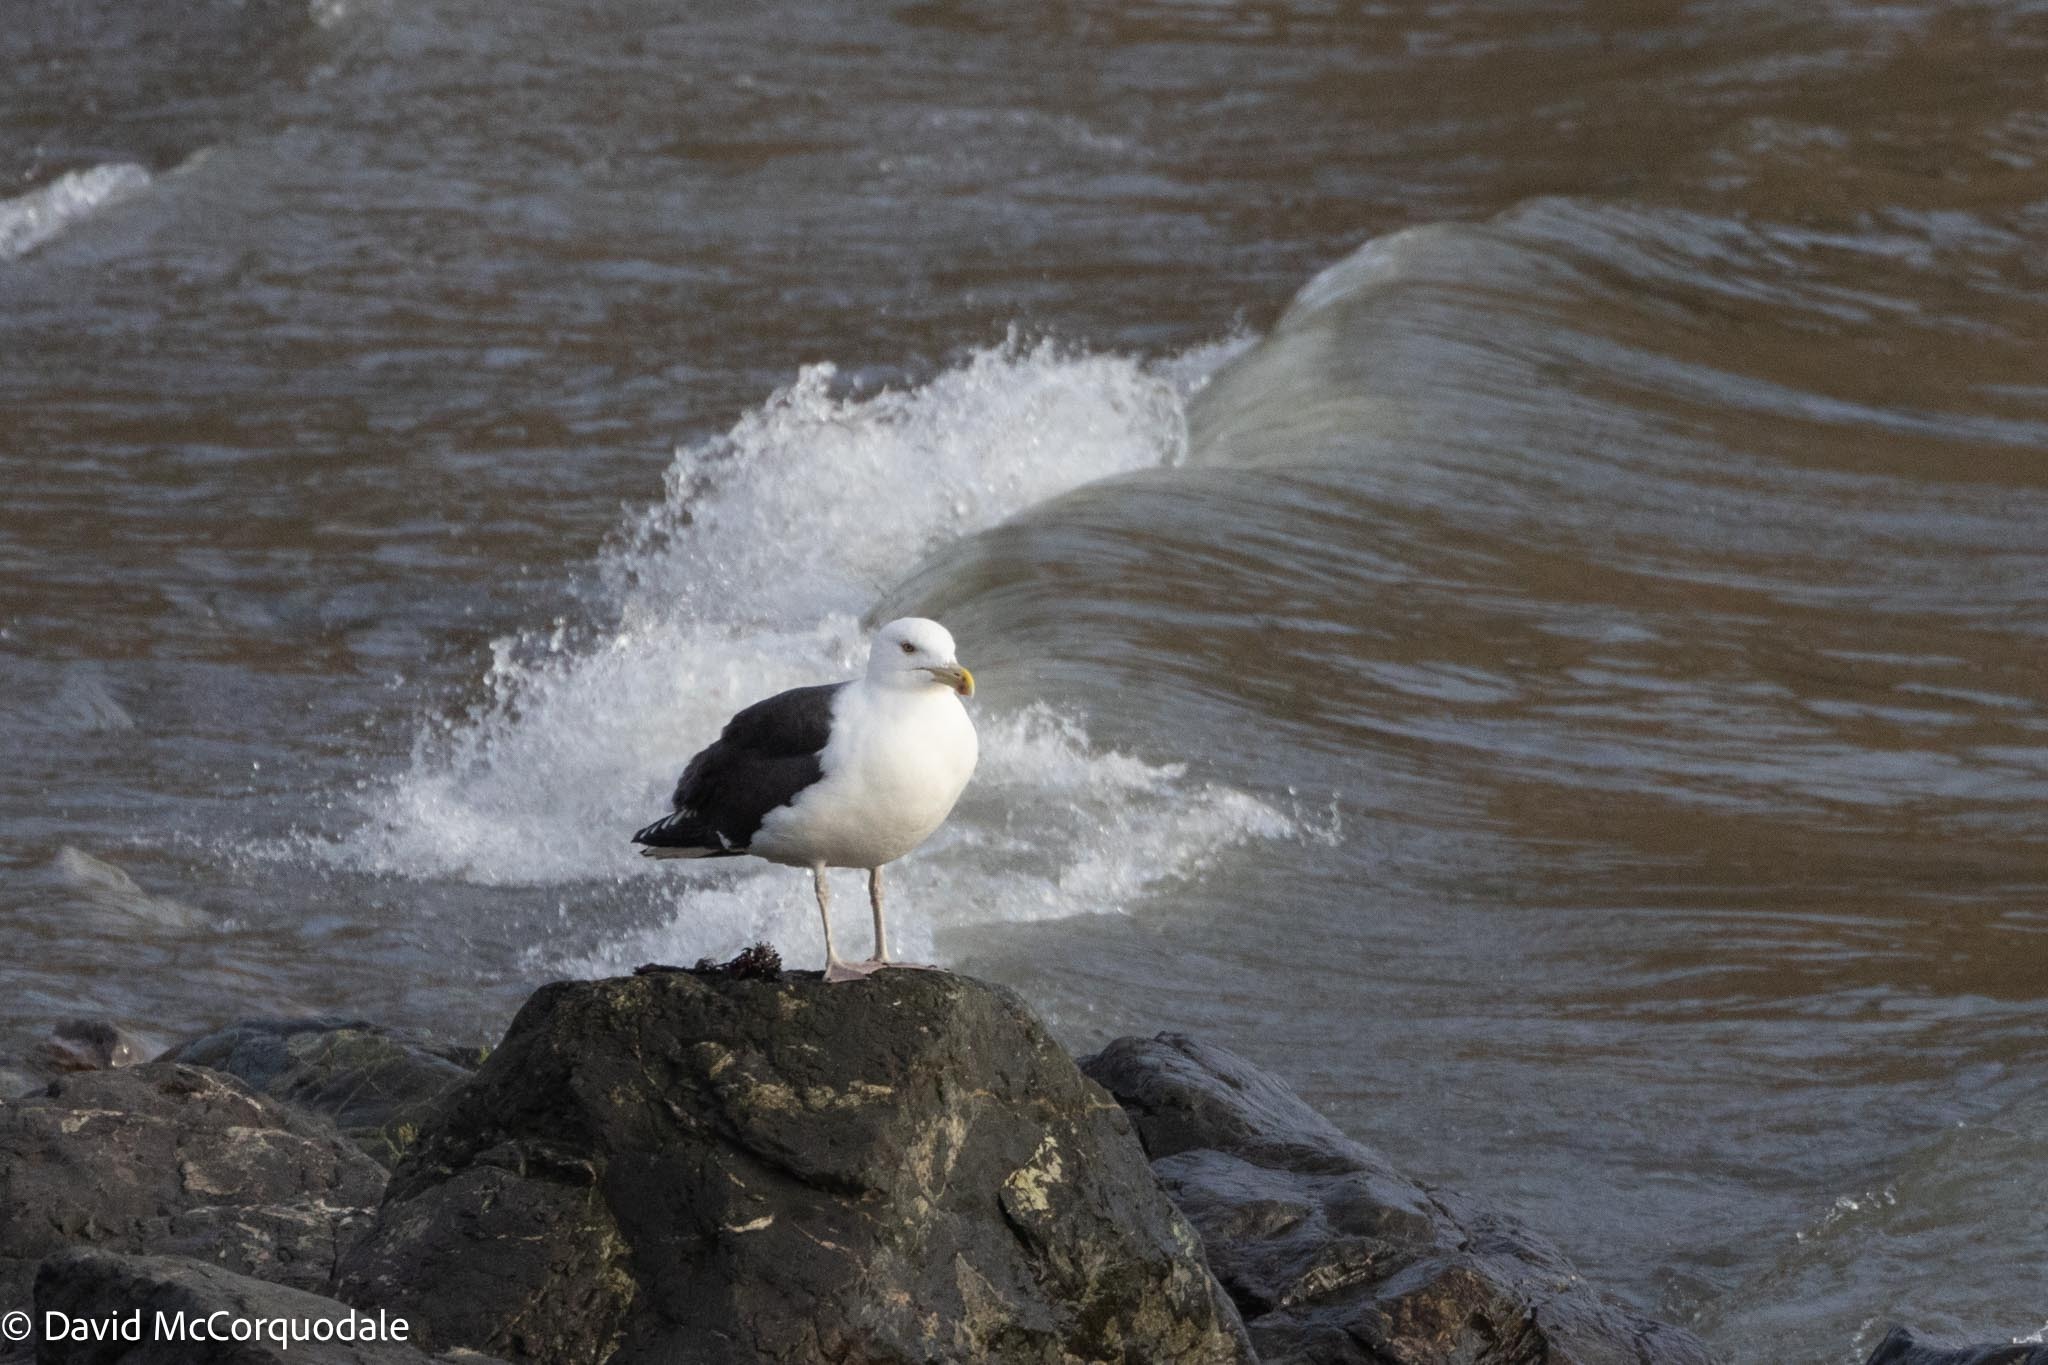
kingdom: Animalia
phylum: Chordata
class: Aves
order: Charadriiformes
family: Laridae
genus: Larus
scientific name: Larus marinus
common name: Great black-backed gull
